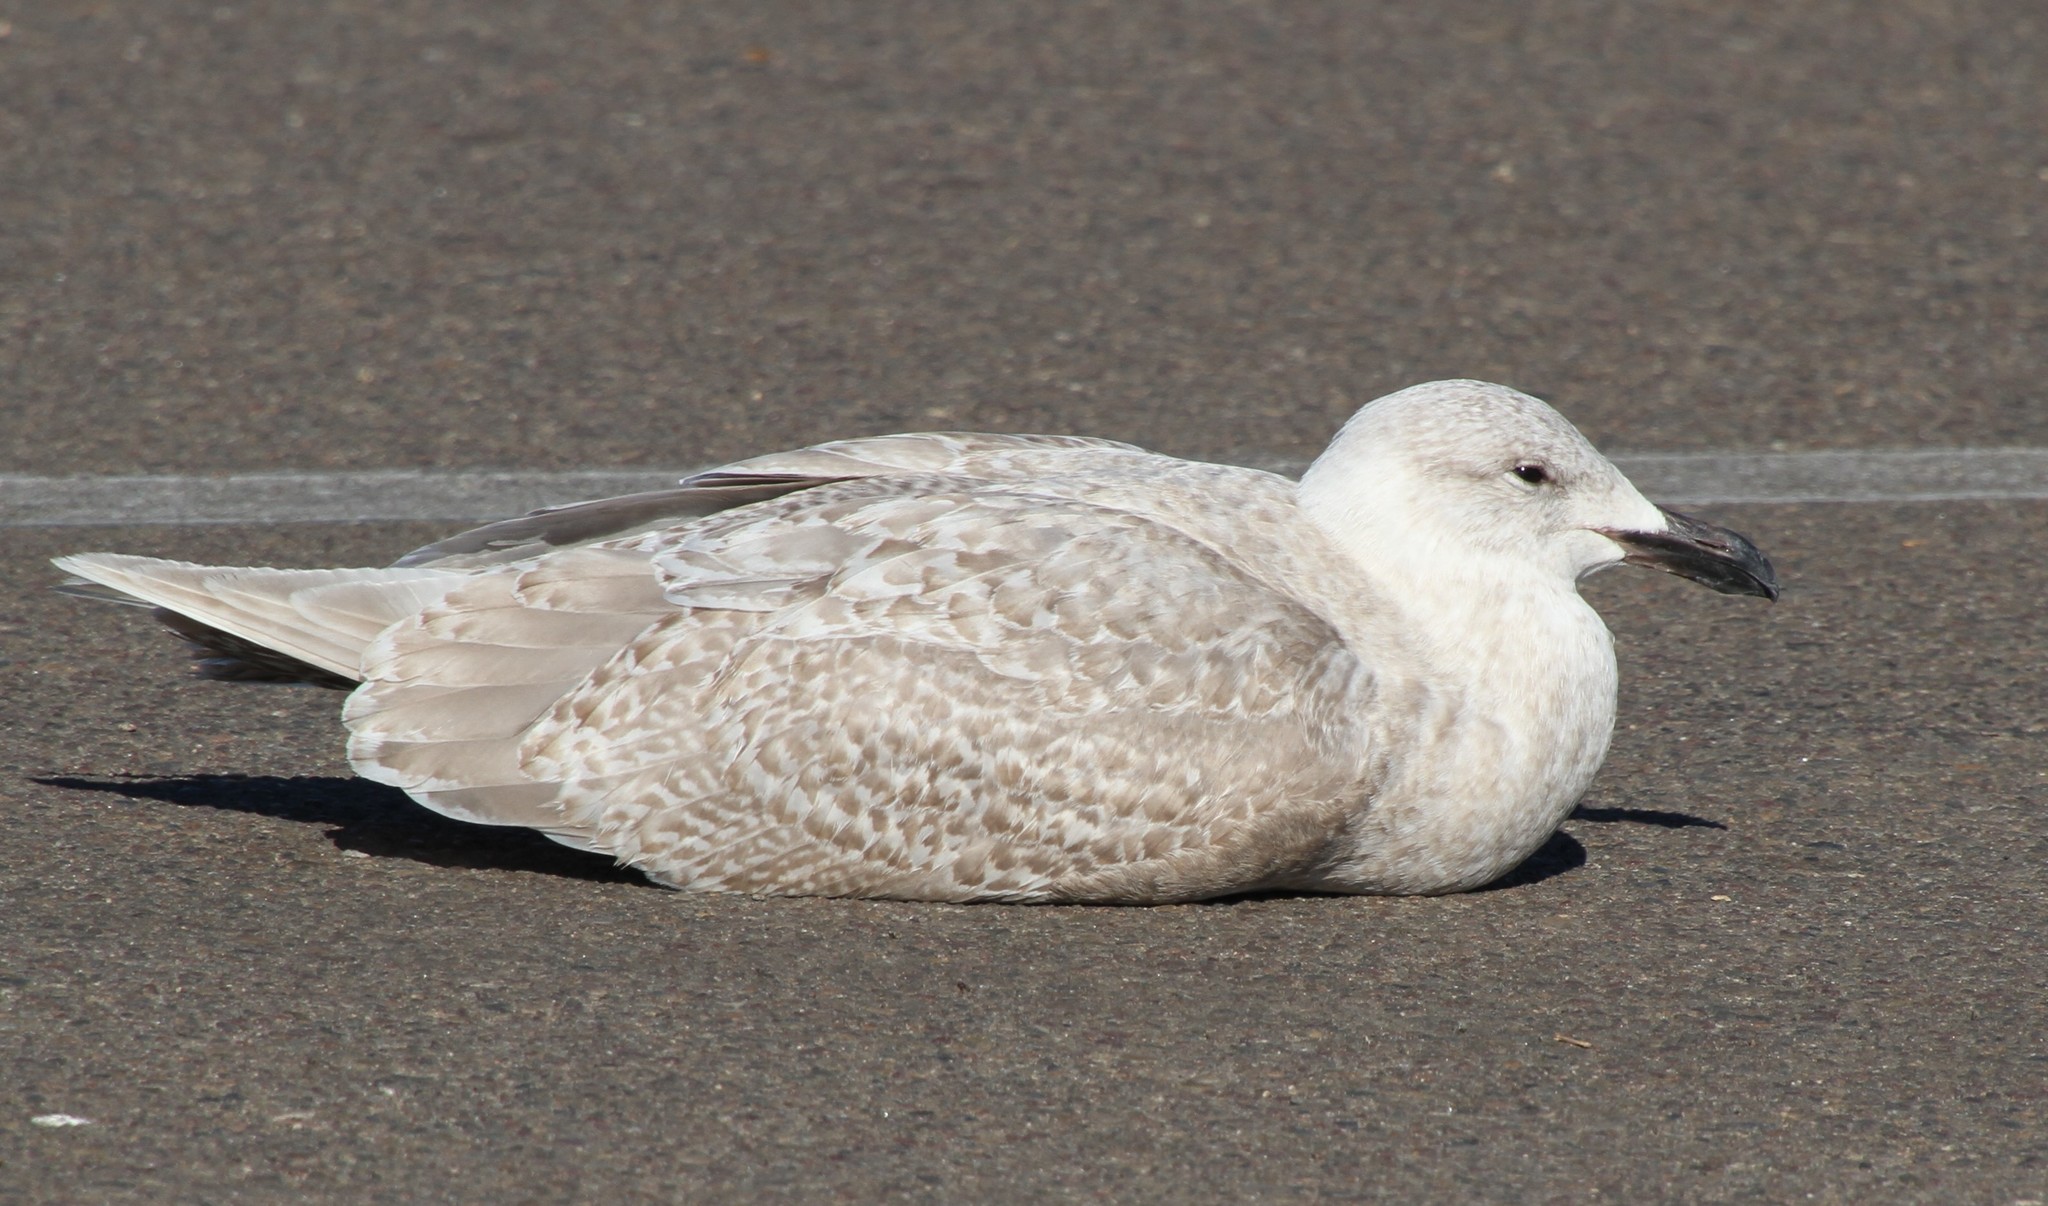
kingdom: Animalia
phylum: Chordata
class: Aves
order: Charadriiformes
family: Laridae
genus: Larus
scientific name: Larus glaucescens
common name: Glaucous-winged gull
